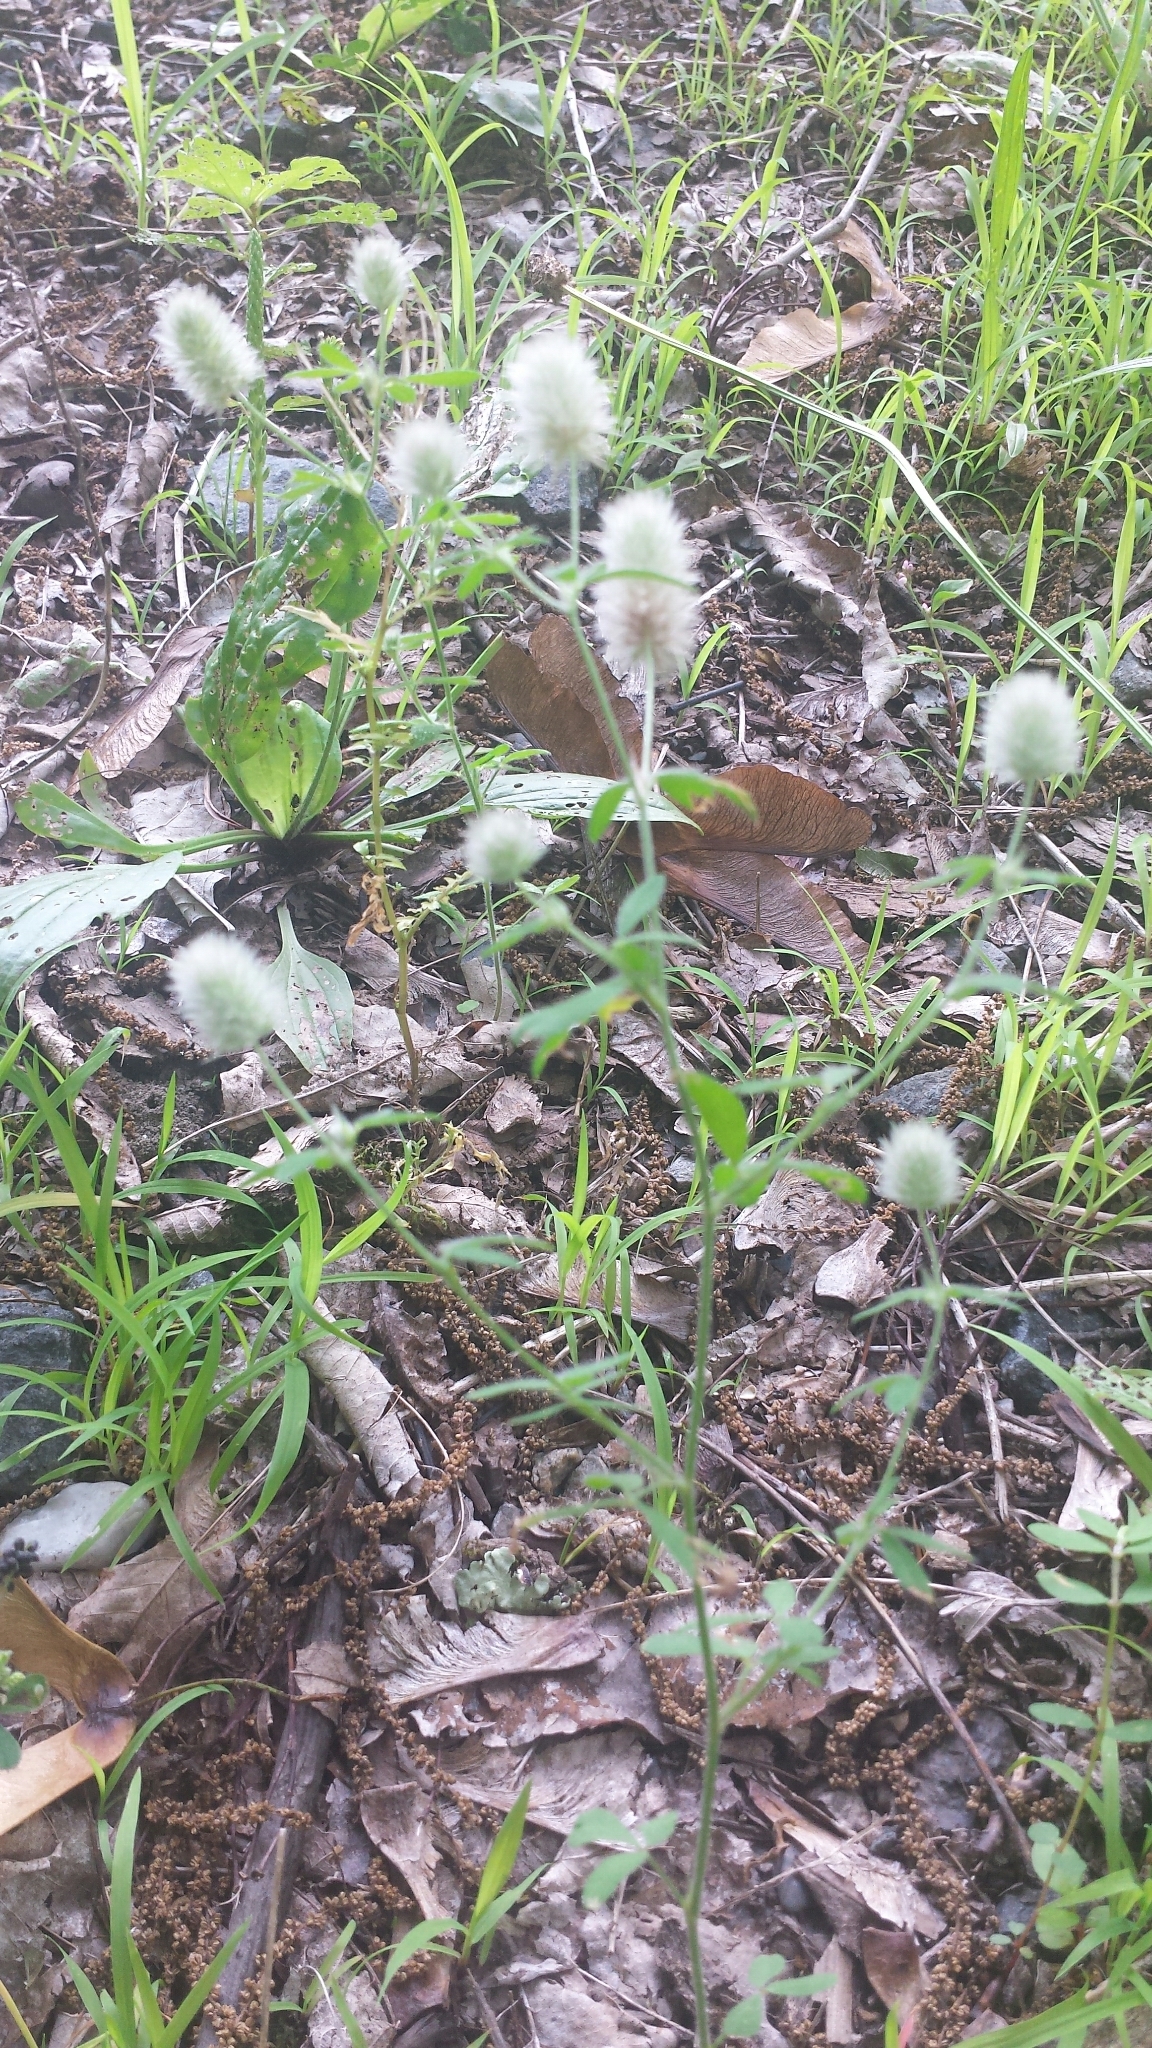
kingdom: Plantae
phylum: Tracheophyta
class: Magnoliopsida
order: Fabales
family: Fabaceae
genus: Trifolium
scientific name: Trifolium arvense
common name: Hare's-foot clover
